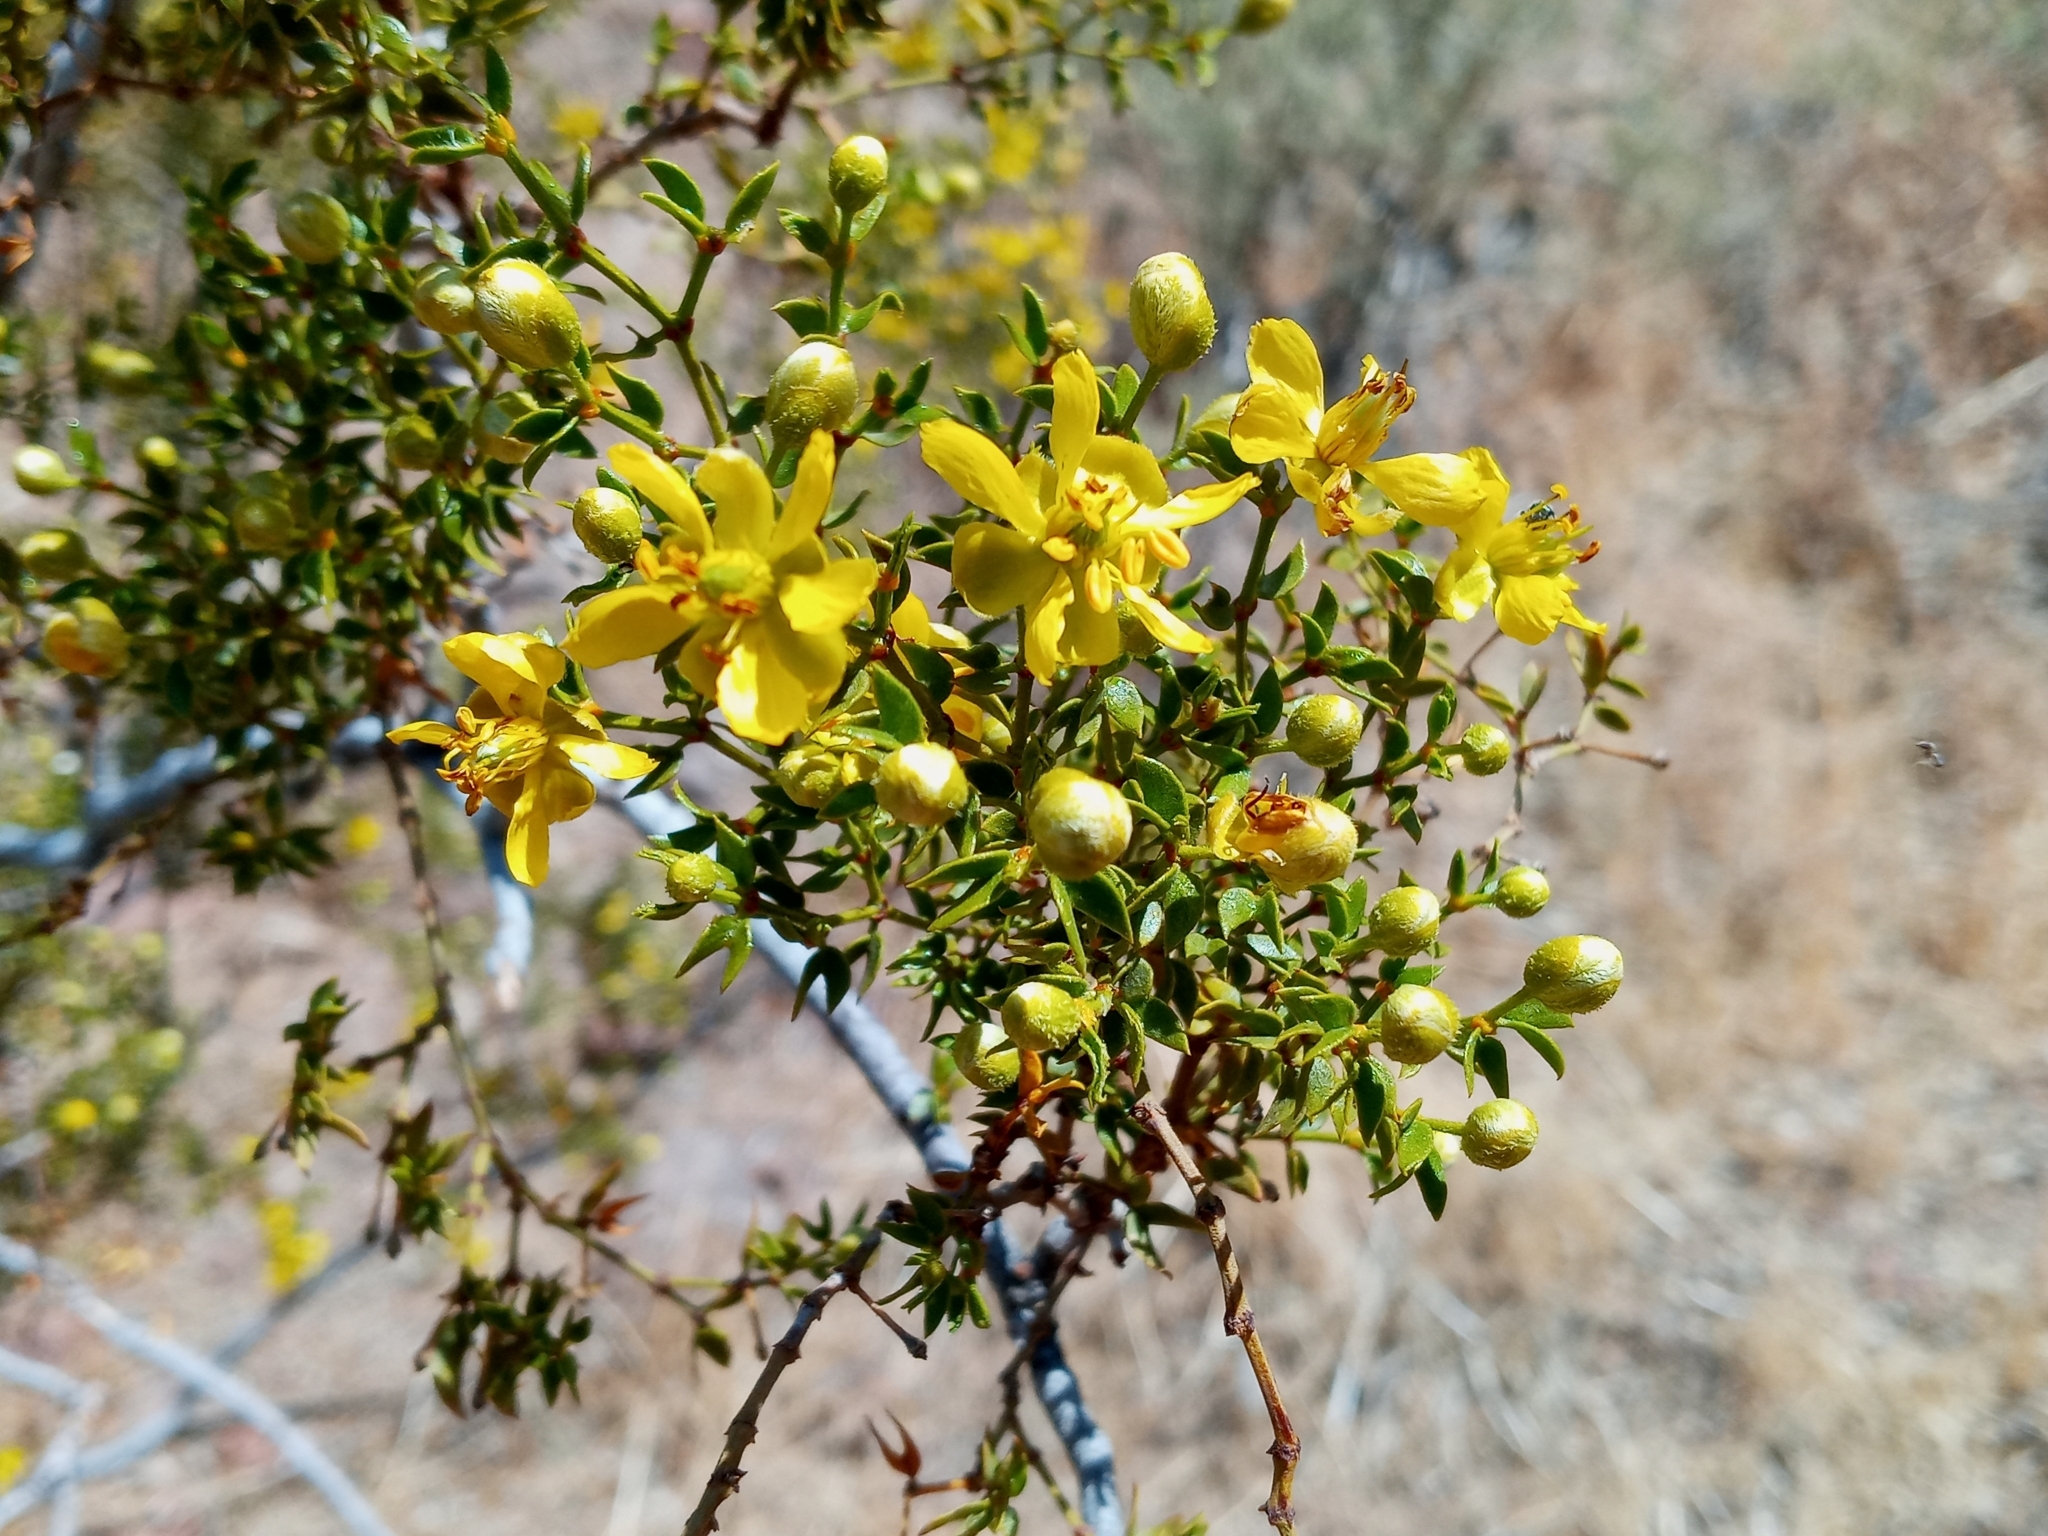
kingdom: Plantae
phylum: Tracheophyta
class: Magnoliopsida
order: Zygophyllales
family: Zygophyllaceae
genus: Larrea
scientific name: Larrea tridentata
